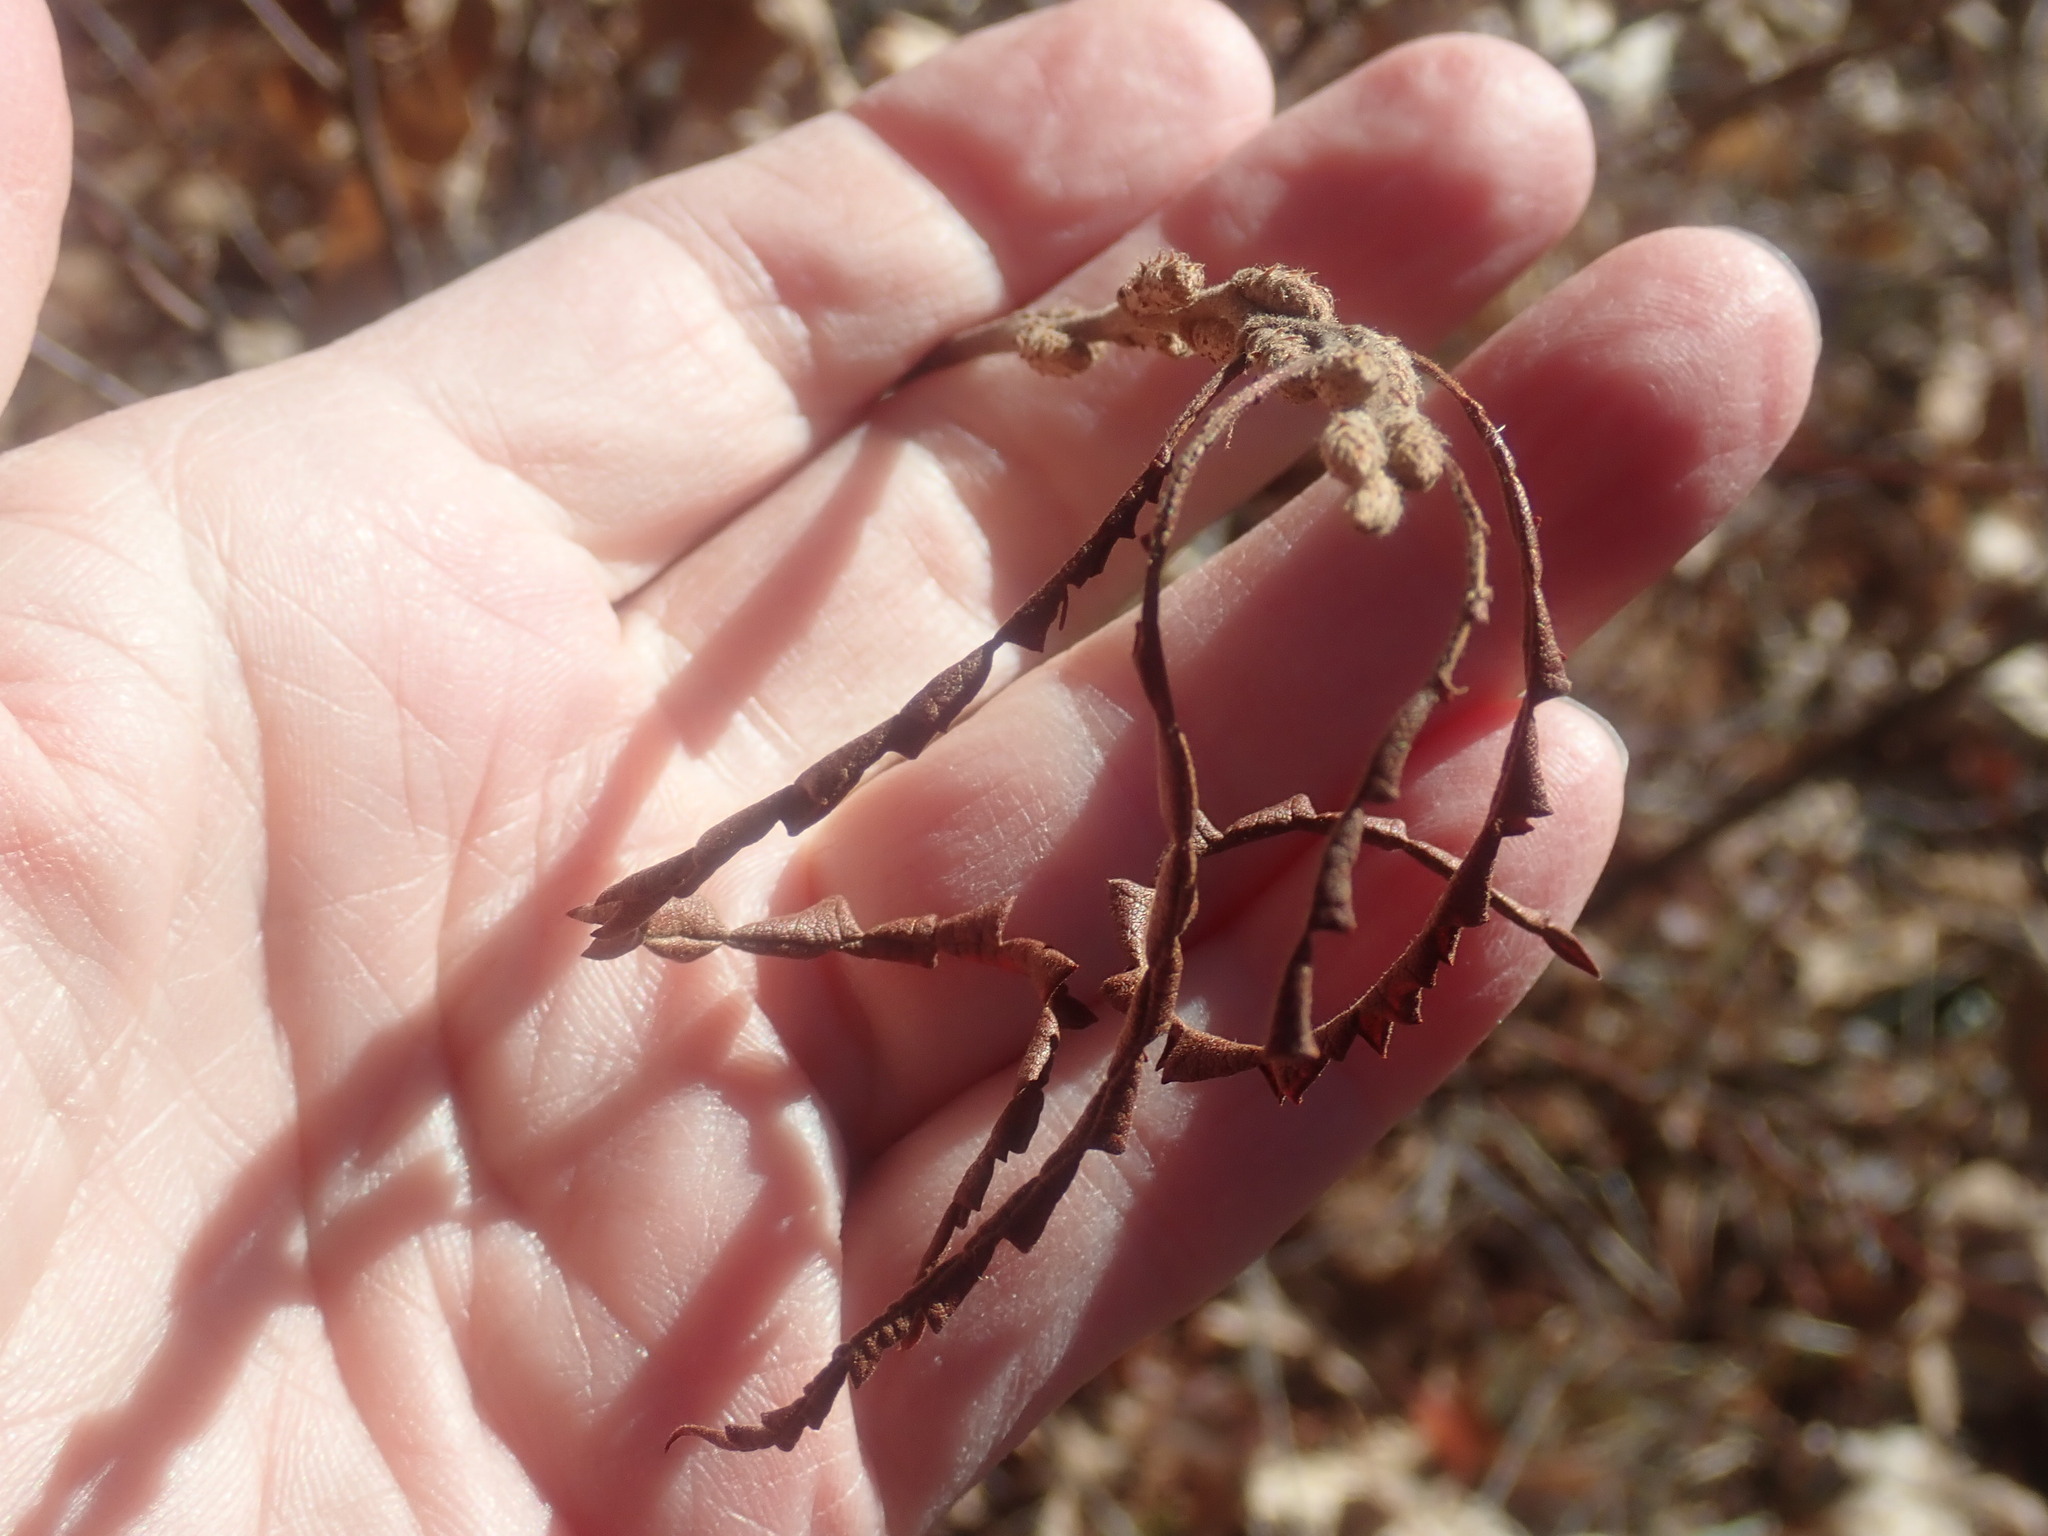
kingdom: Plantae
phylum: Tracheophyta
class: Magnoliopsida
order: Fagales
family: Myricaceae
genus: Comptonia
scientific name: Comptonia peregrina
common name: Sweet-fern
